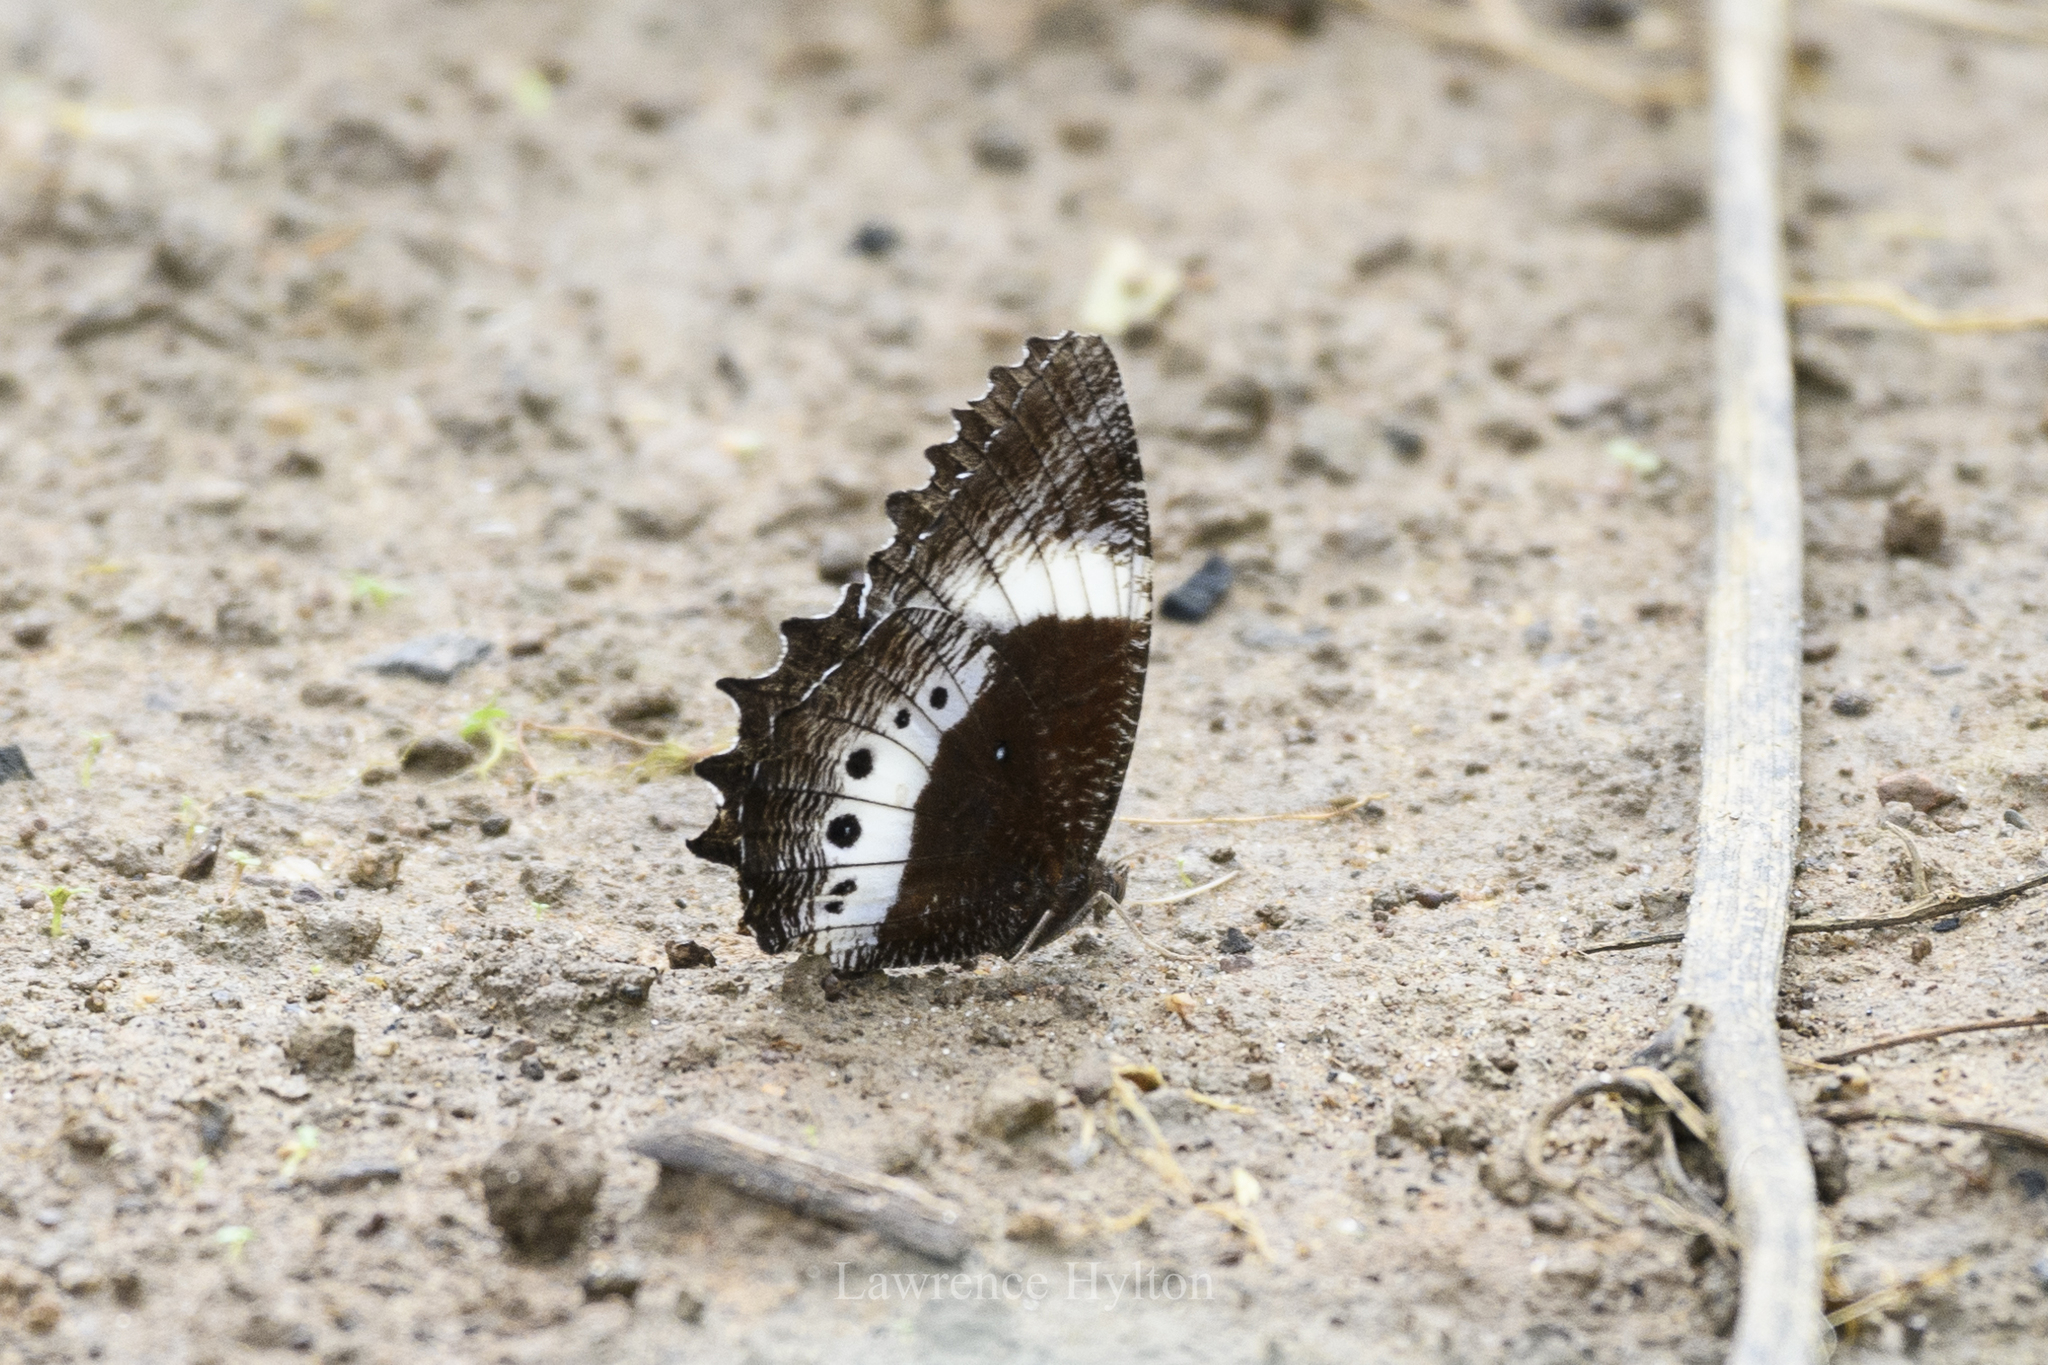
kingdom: Animalia
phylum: Arthropoda
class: Insecta
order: Lepidoptera
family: Nymphalidae
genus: Elymnias
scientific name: Elymnias dara
